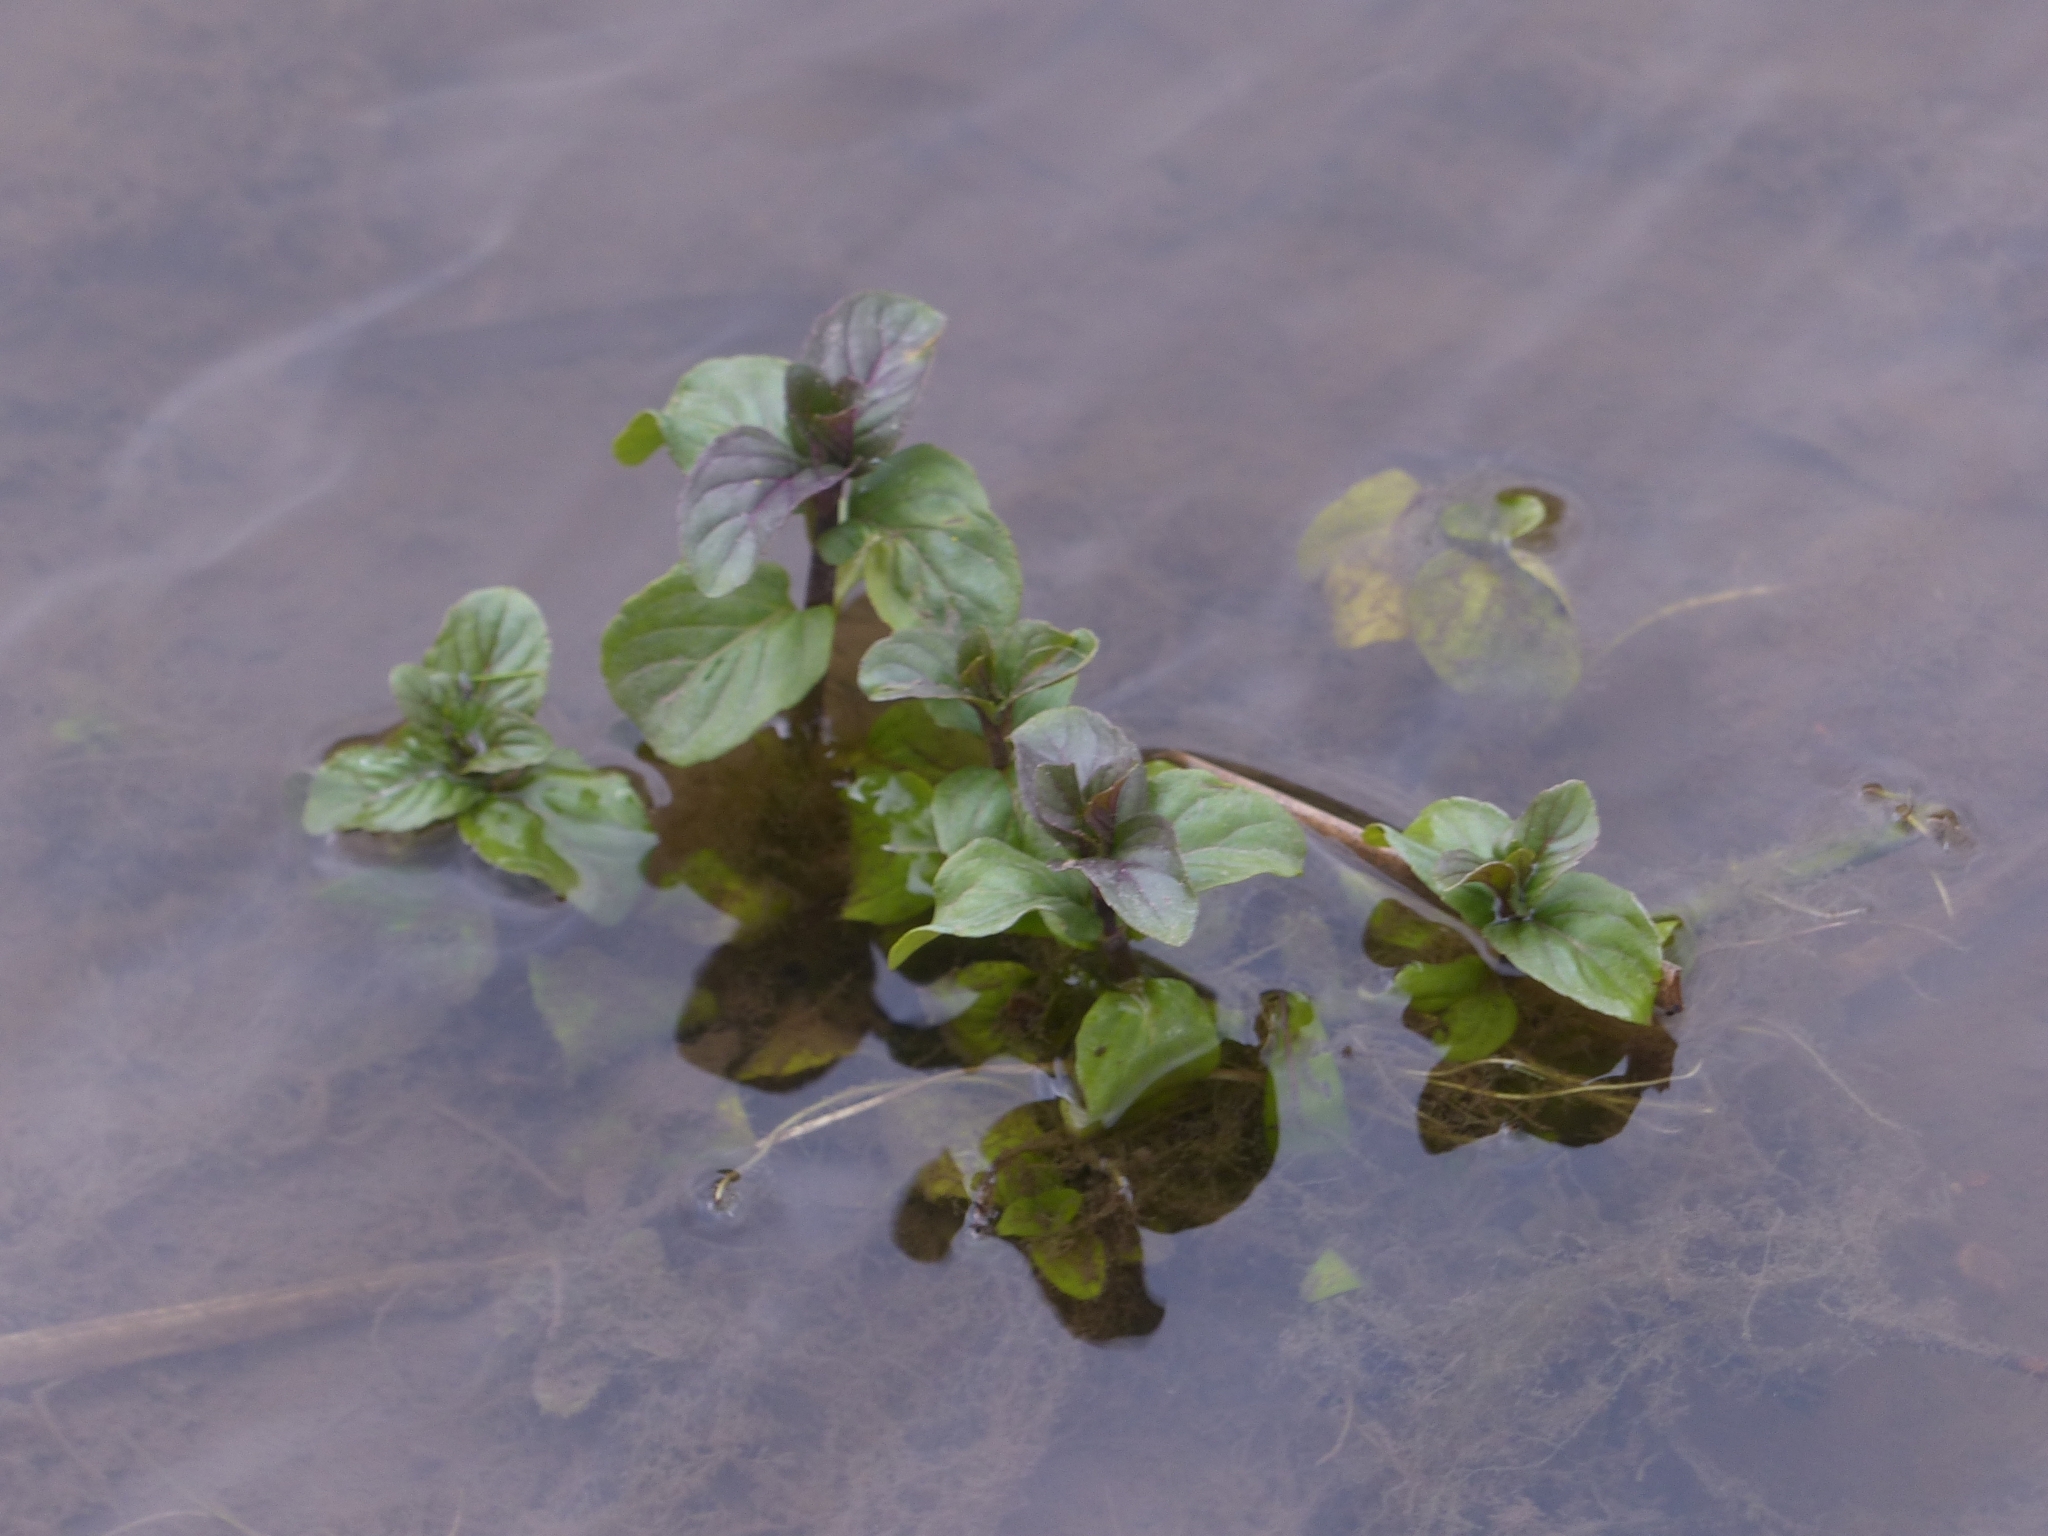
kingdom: Plantae
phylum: Tracheophyta
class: Magnoliopsida
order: Lamiales
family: Lamiaceae
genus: Mentha
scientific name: Mentha aquatica
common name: Water mint
